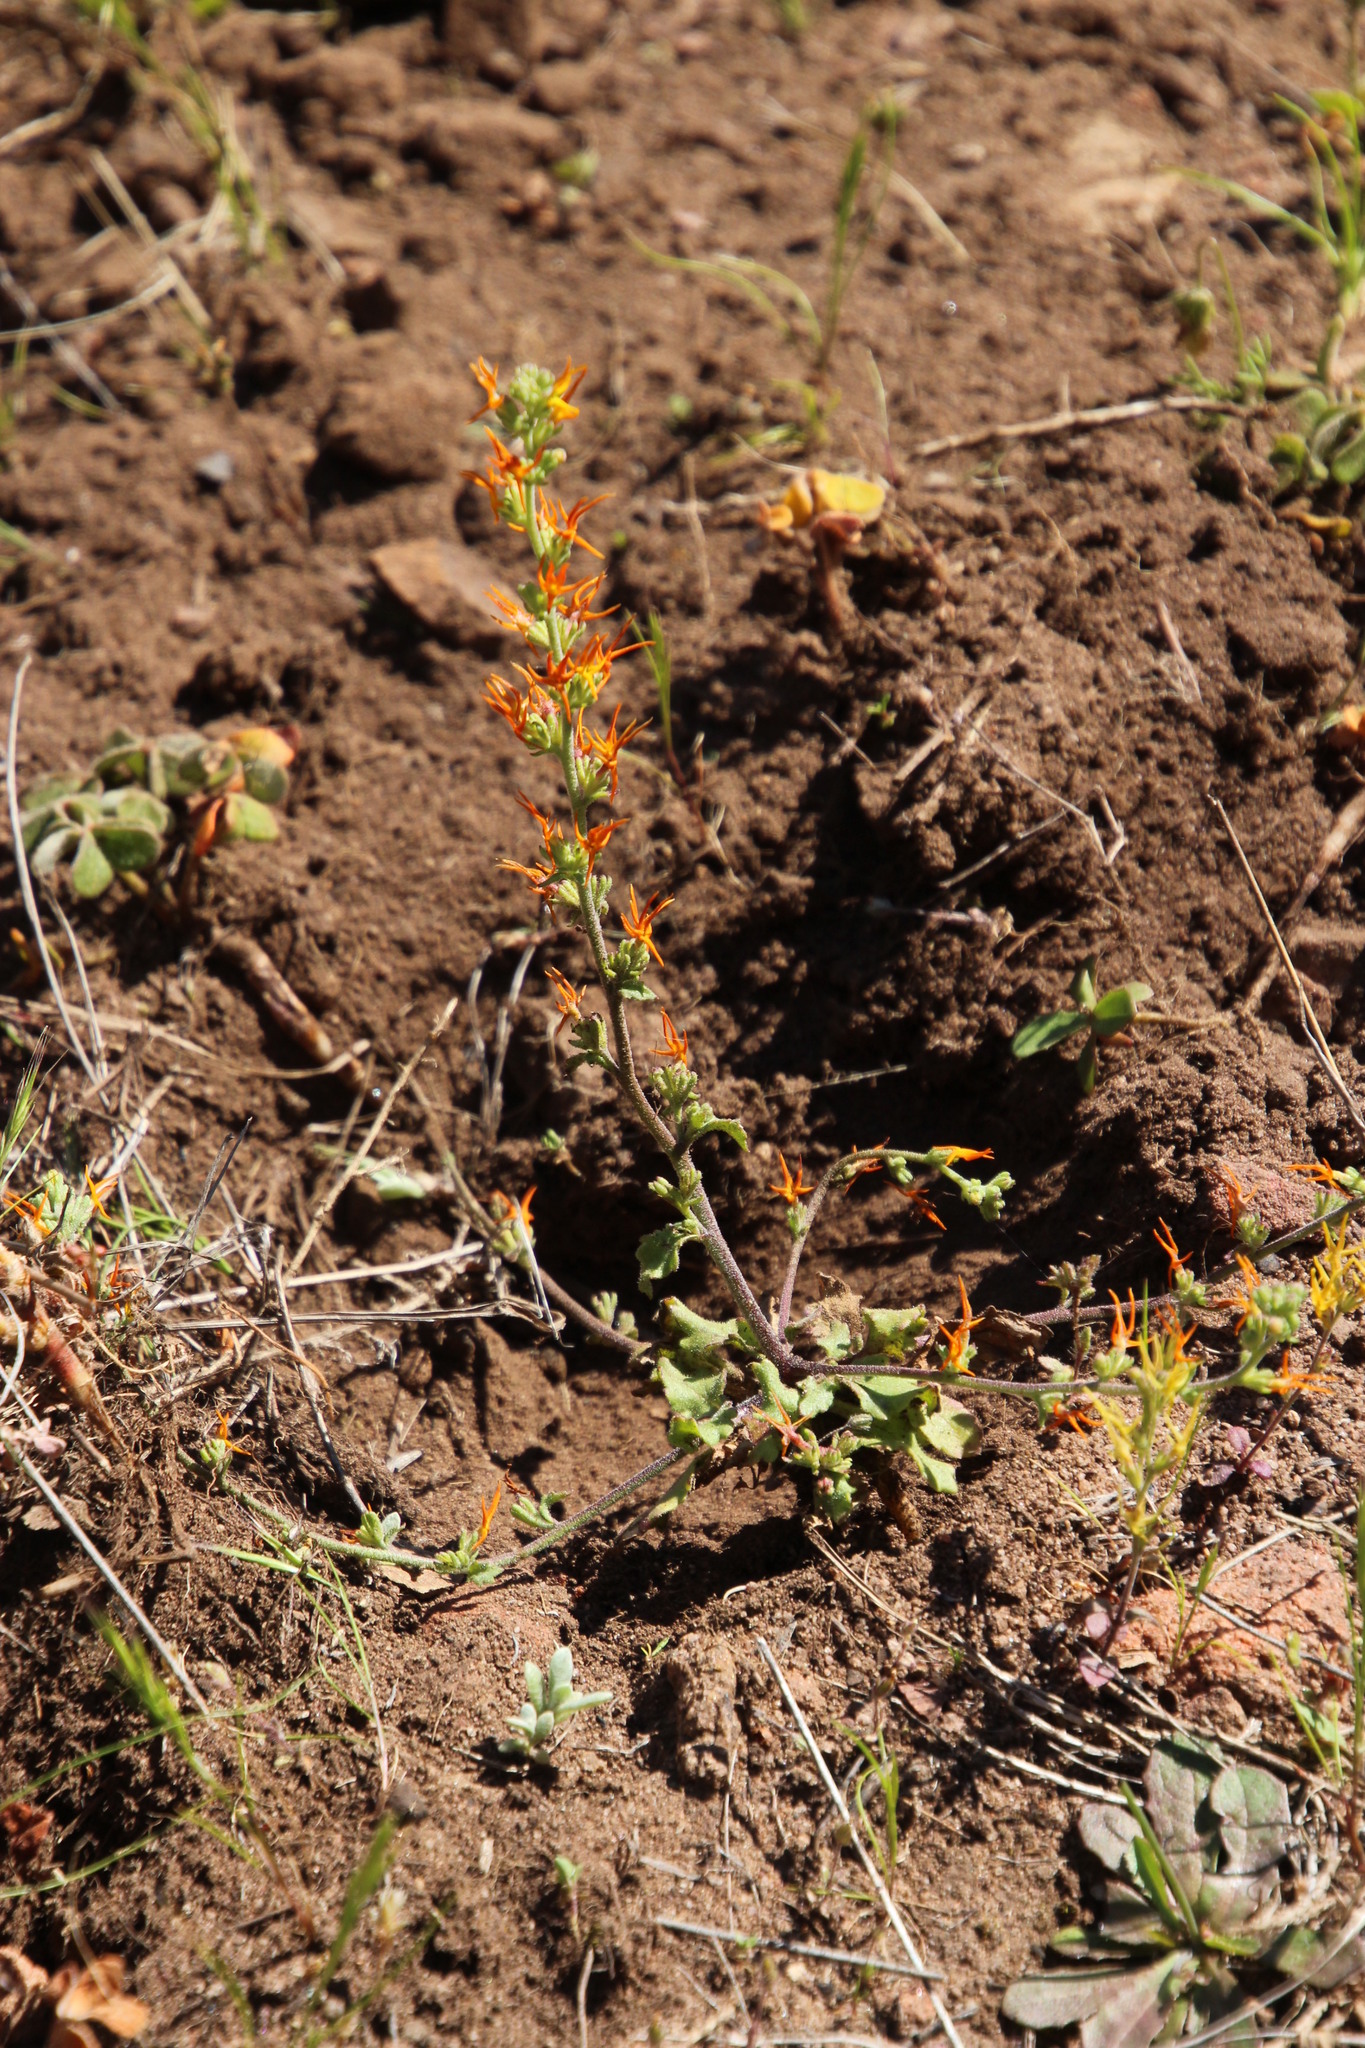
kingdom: Plantae
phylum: Tracheophyta
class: Magnoliopsida
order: Lamiales
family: Scrophulariaceae
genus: Manulea
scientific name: Manulea cheiranthus
